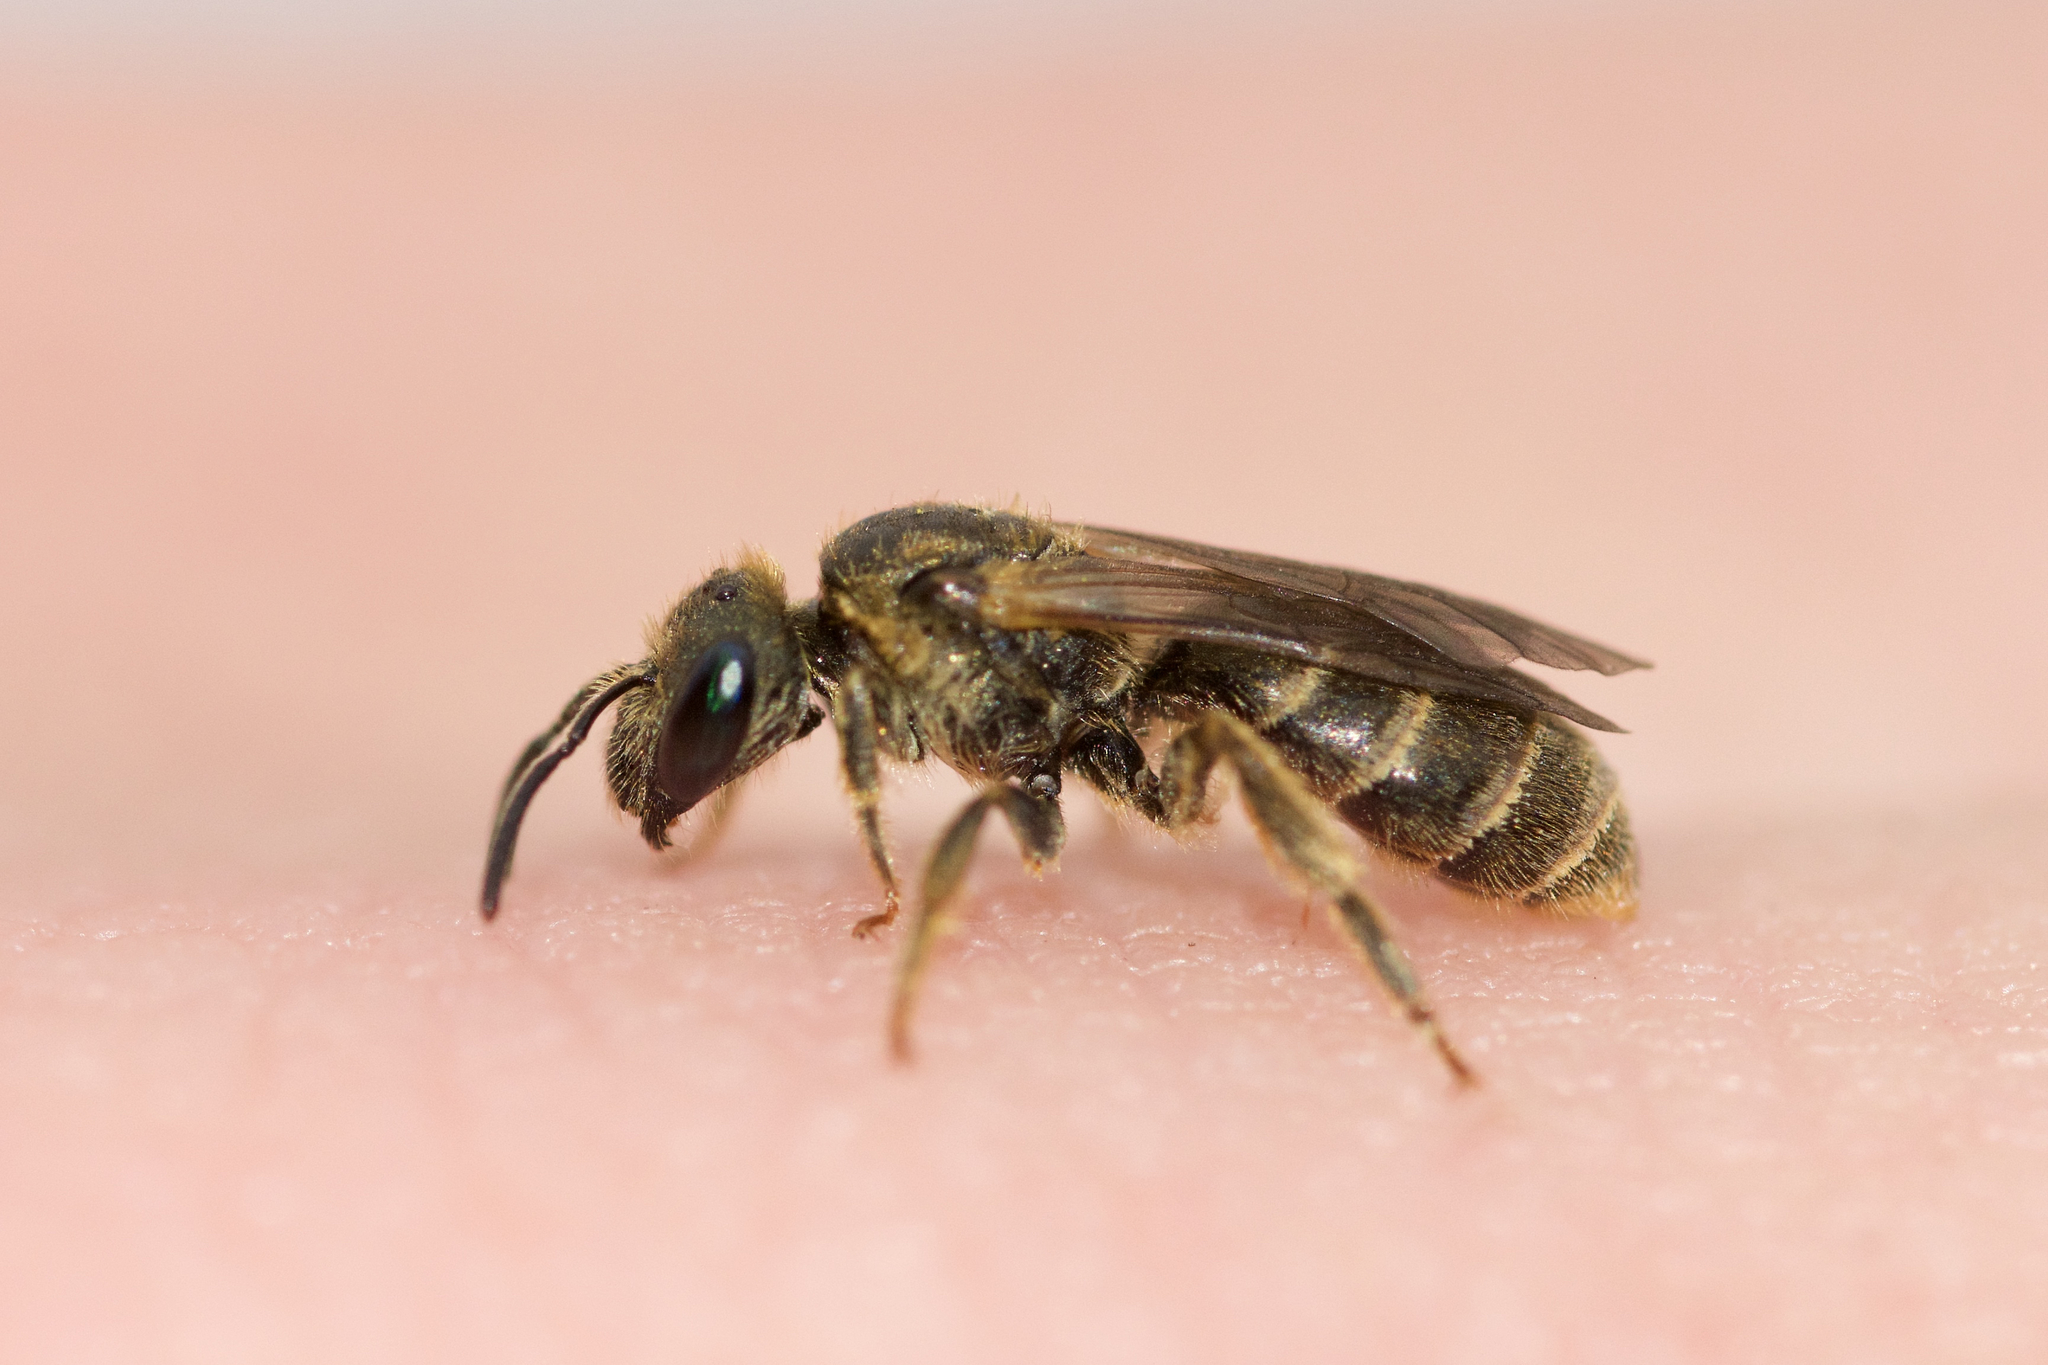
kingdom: Animalia
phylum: Arthropoda
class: Insecta
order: Hymenoptera
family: Halictidae
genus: Halictus
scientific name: Halictus confusus
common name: Southern bronze furrow bee
